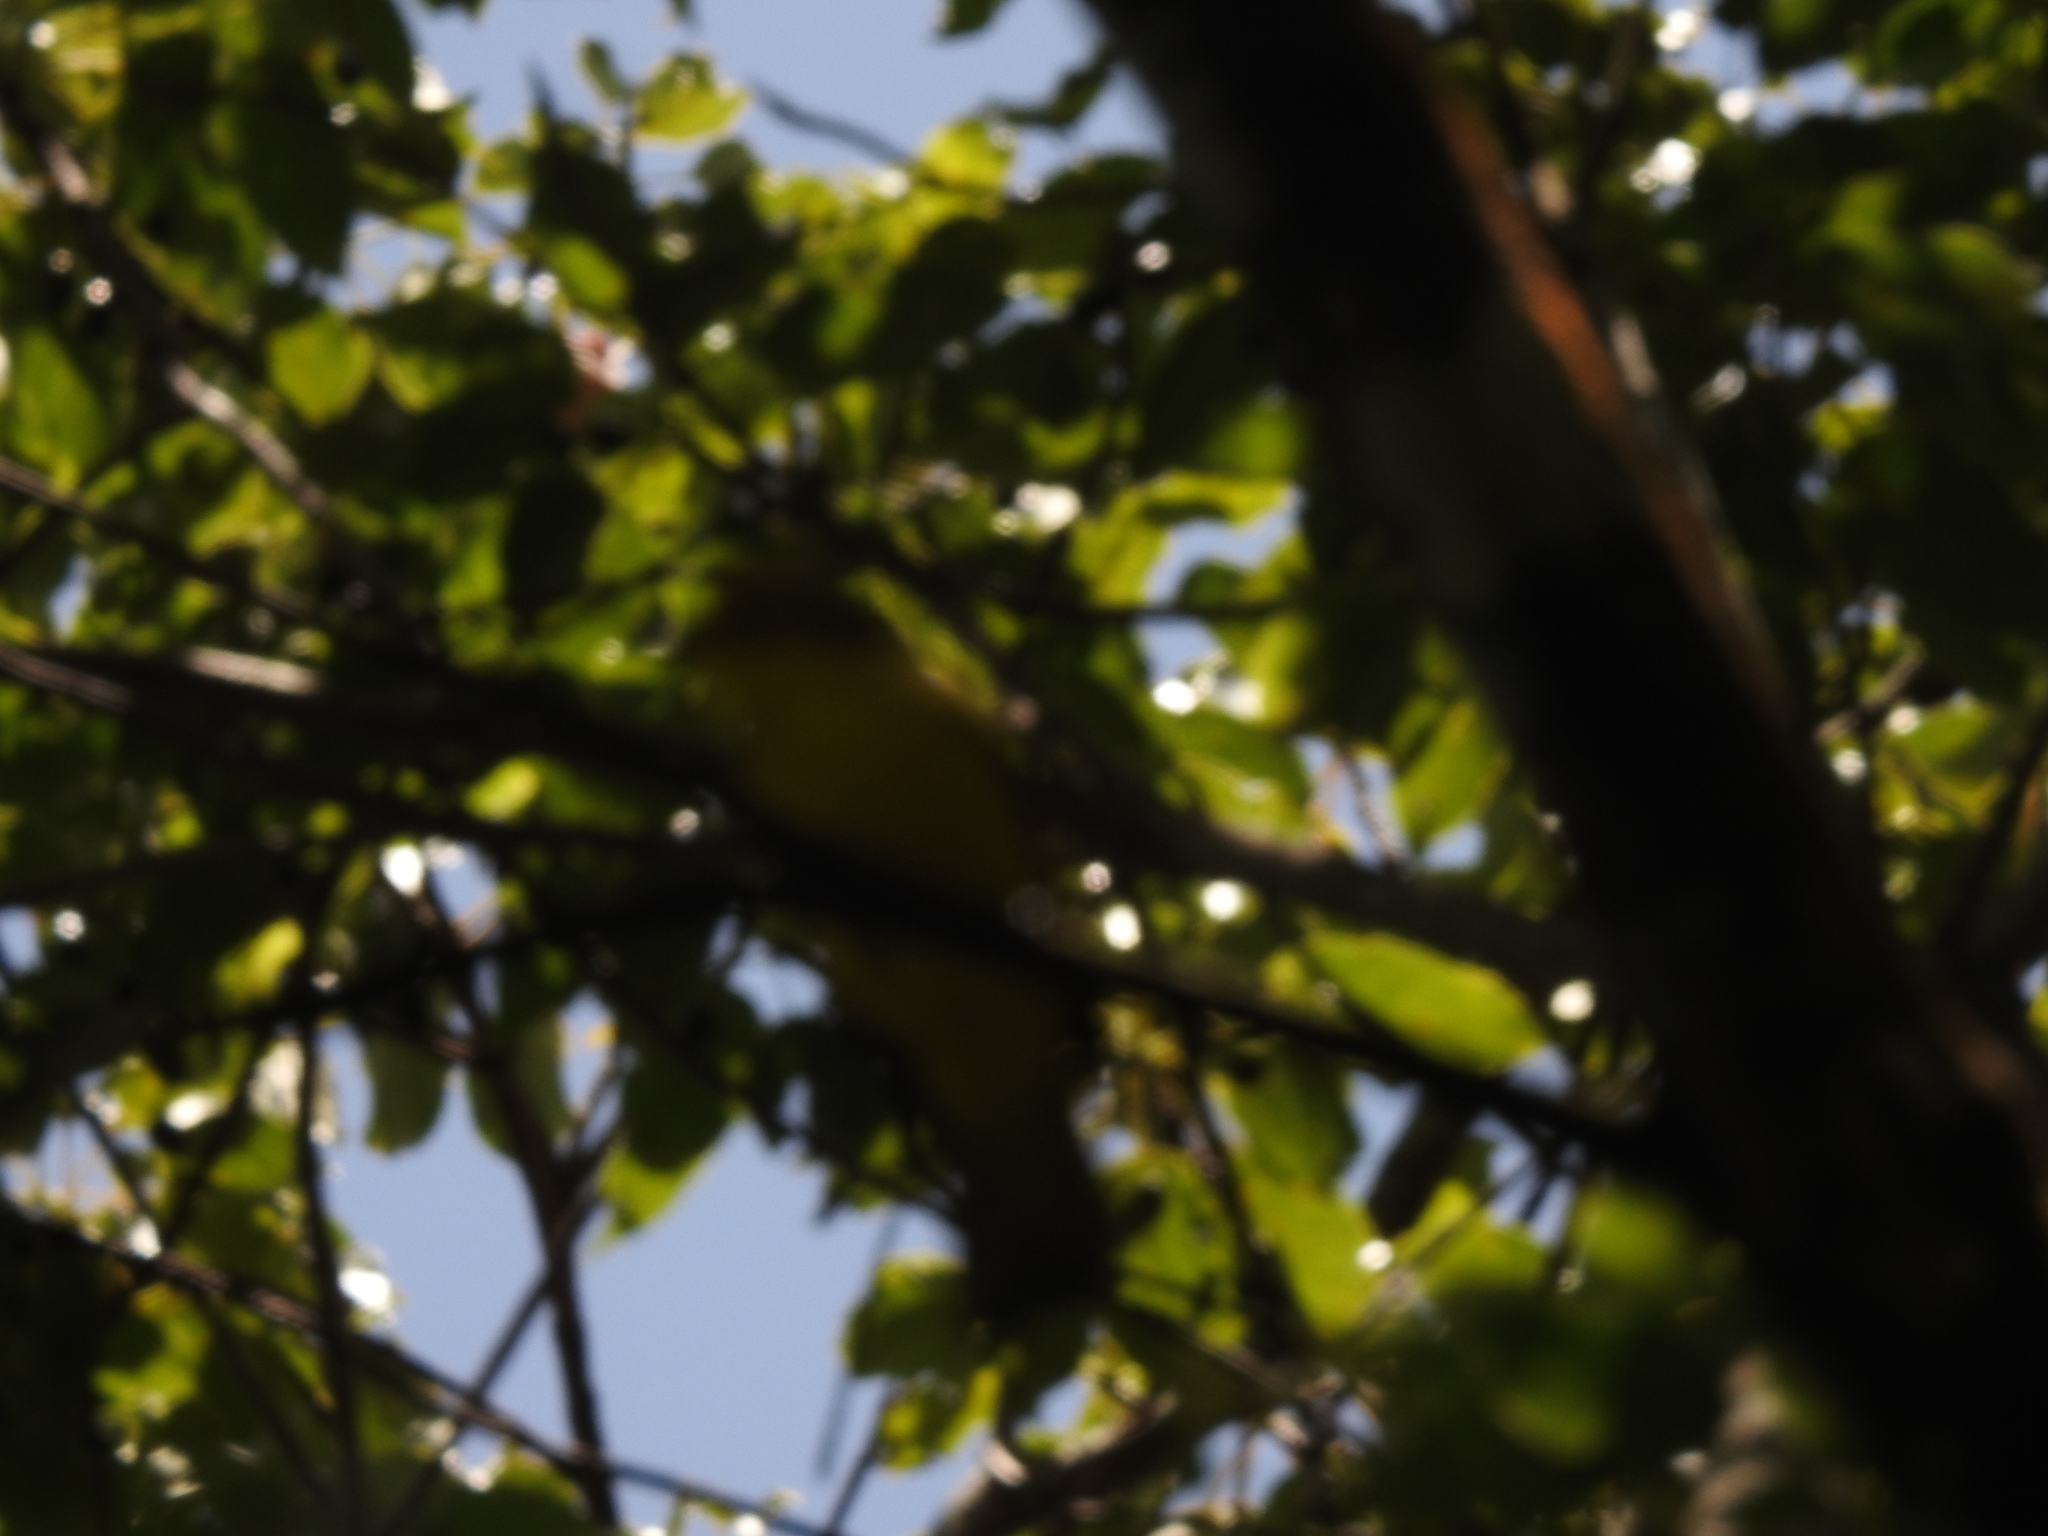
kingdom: Animalia
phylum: Chordata
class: Aves
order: Passeriformes
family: Pycnonotidae
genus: Acritillas
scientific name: Acritillas indica
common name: Yellow-browed bulbul
